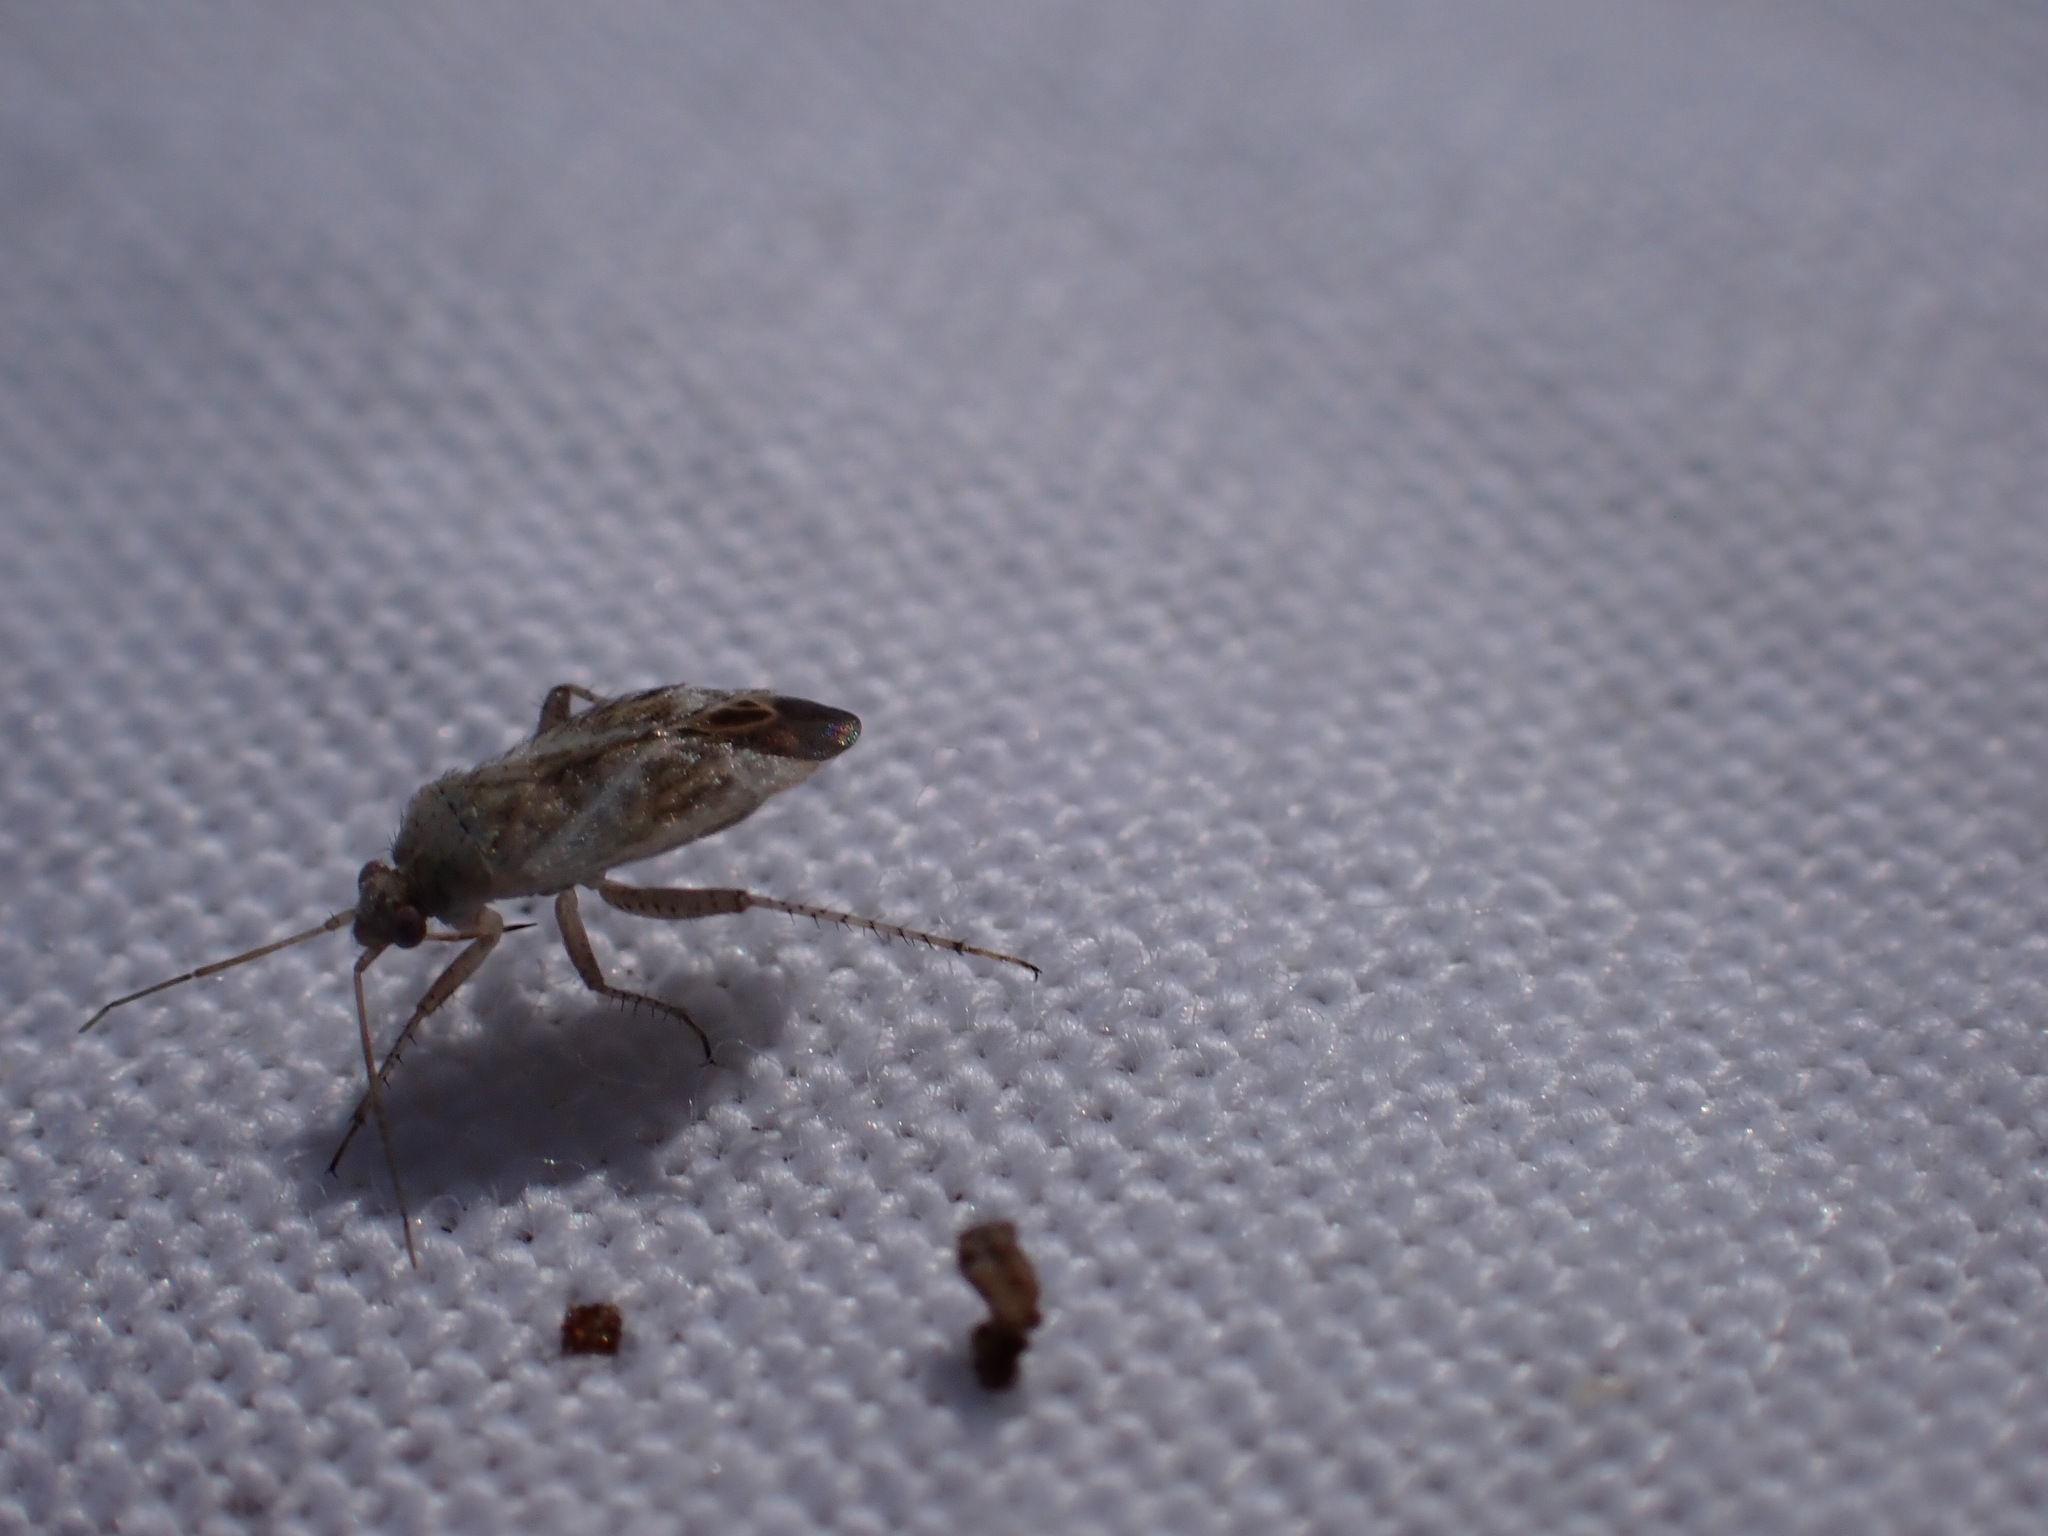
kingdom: Animalia
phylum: Arthropoda
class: Insecta
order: Hemiptera
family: Miridae
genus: Compsidolon
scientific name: Compsidolon crotchi
